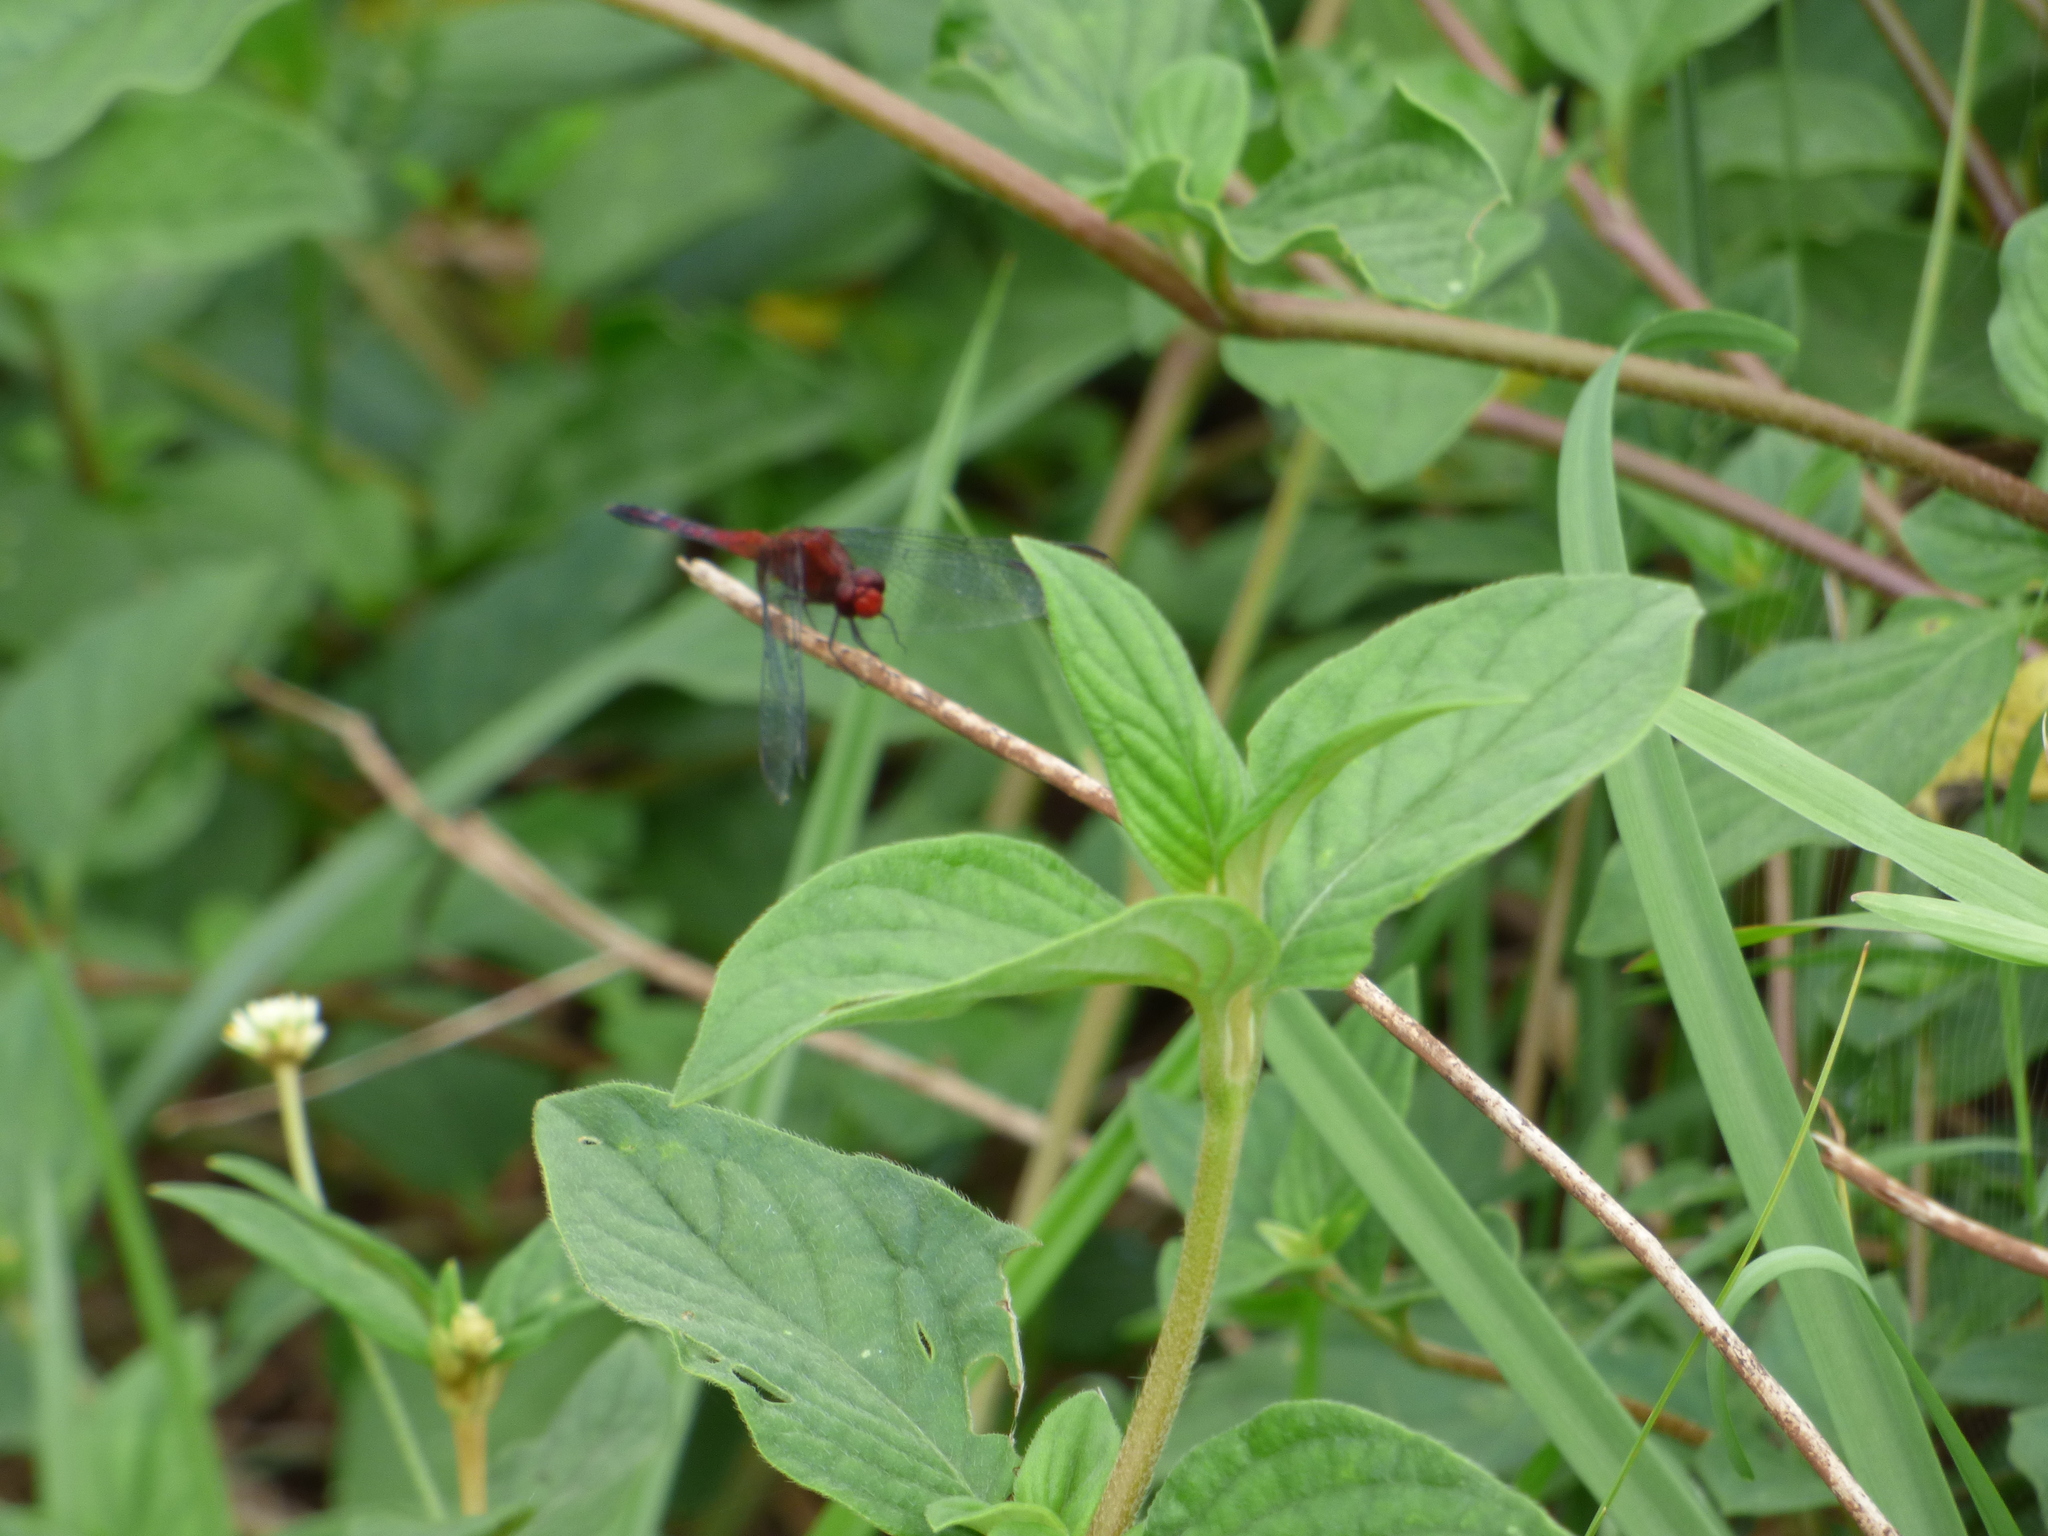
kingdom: Animalia
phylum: Arthropoda
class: Insecta
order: Odonata
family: Libellulidae
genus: Erythrodiplax
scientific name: Erythrodiplax fusca
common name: Red-faced dragonlet
